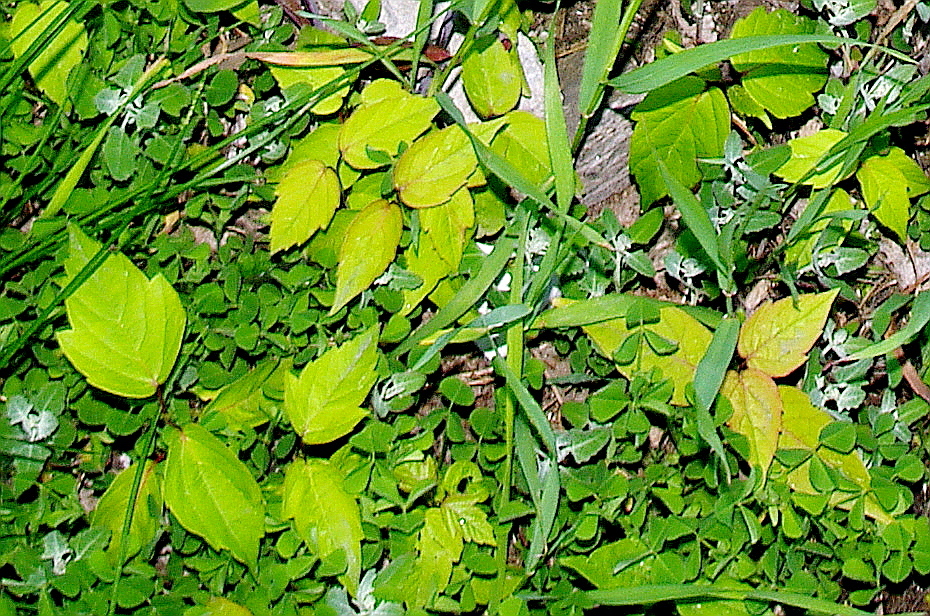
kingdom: Plantae
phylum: Tracheophyta
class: Magnoliopsida
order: Sapindales
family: Sapindaceae
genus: Acer
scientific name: Acer negundo
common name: Ashleaf maple
